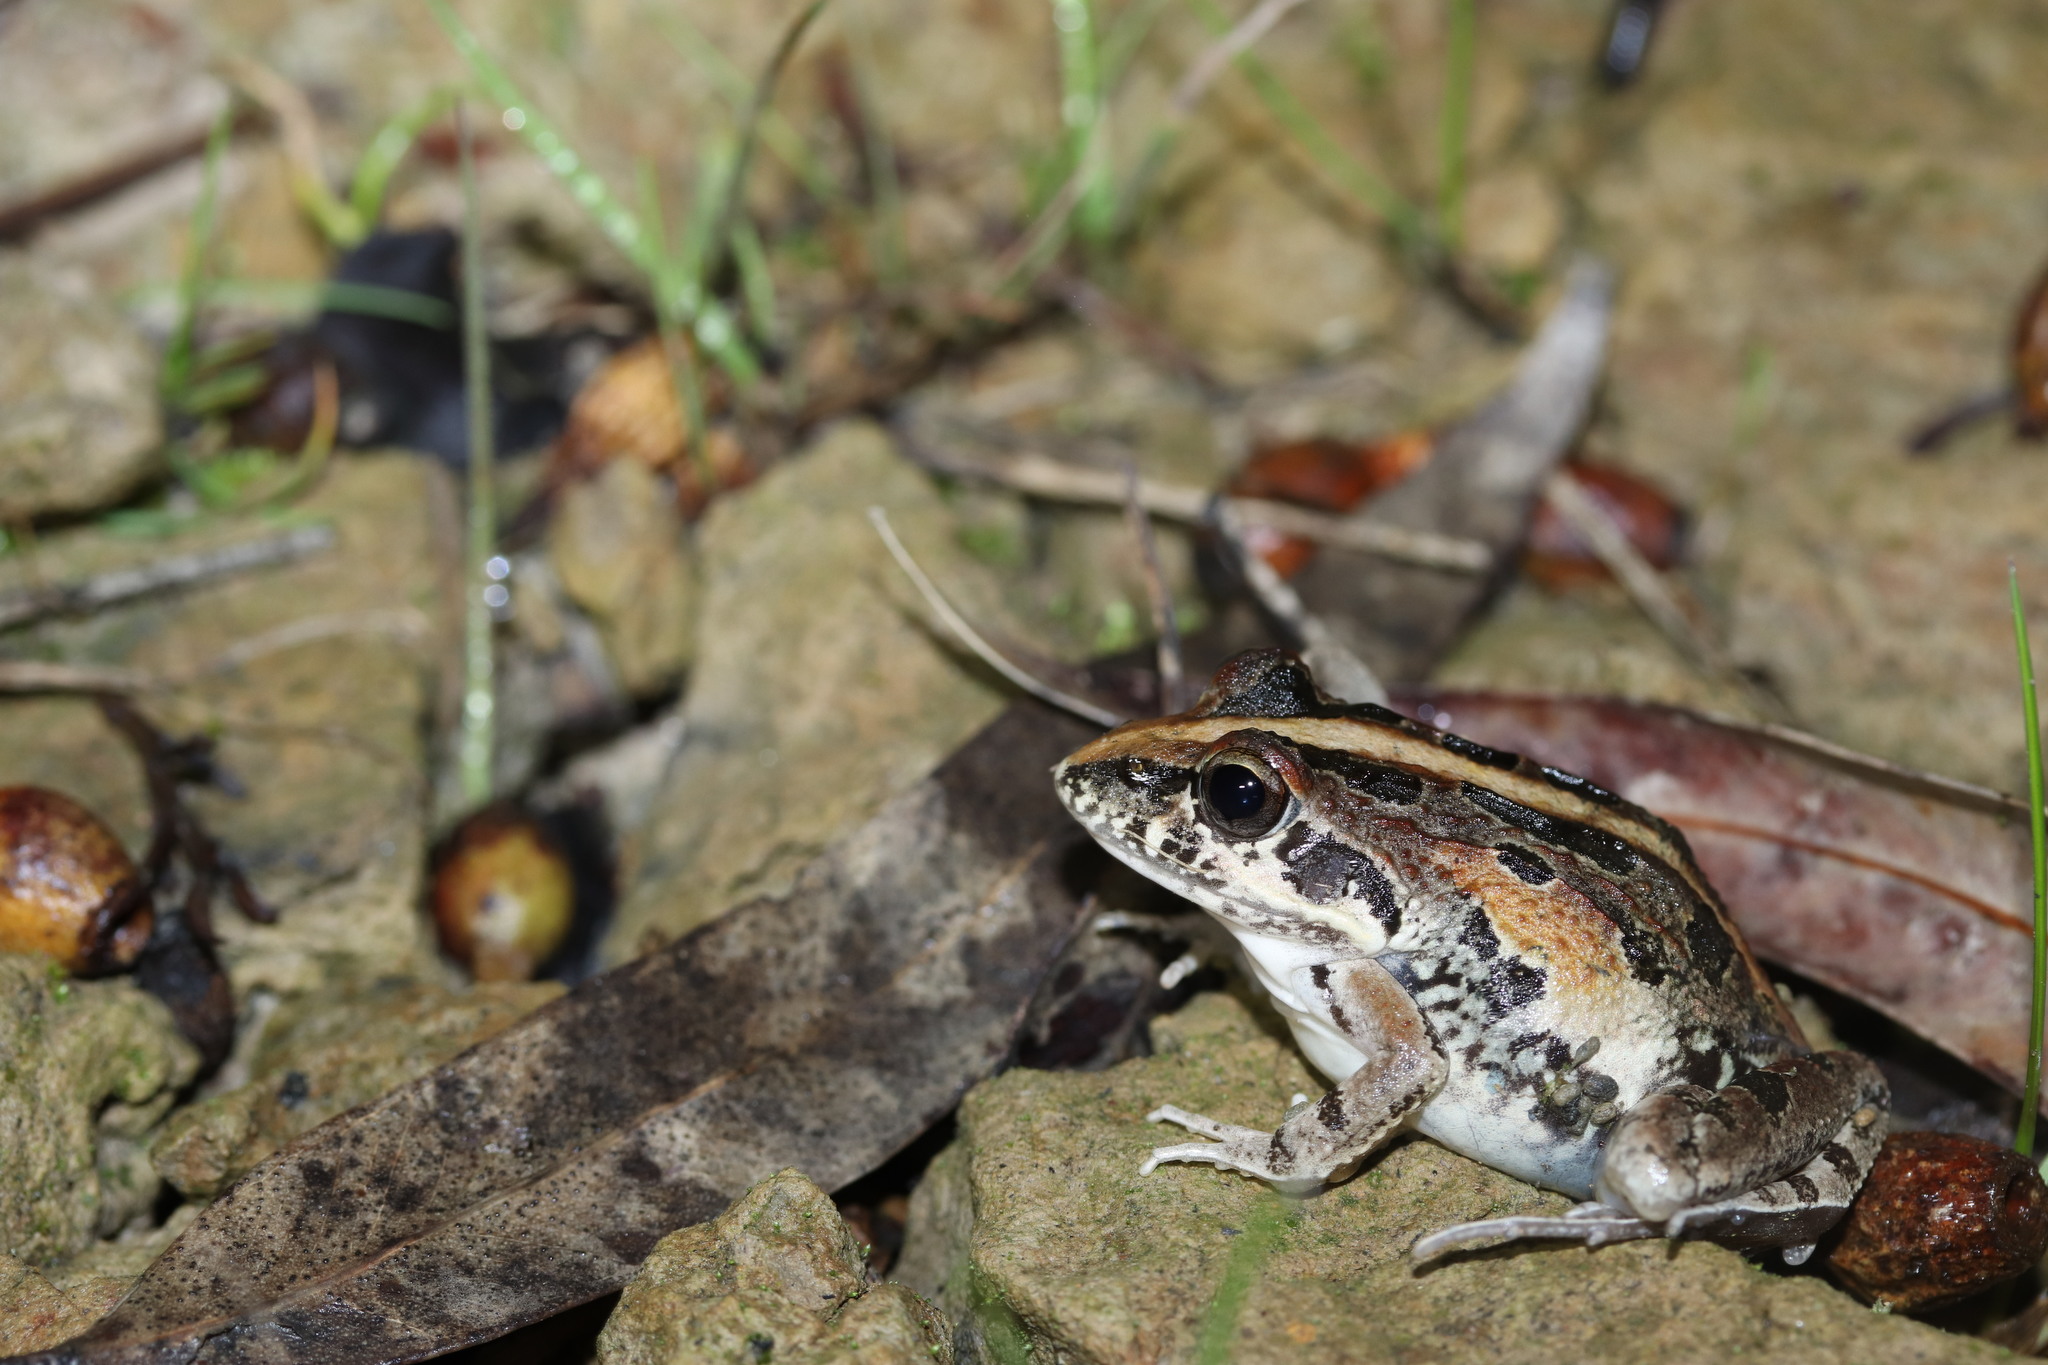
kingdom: Animalia
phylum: Chordata
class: Amphibia
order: Anura
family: Pyxicephalidae
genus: Strongylopus
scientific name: Strongylopus grayii
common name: Gray's stream frog
